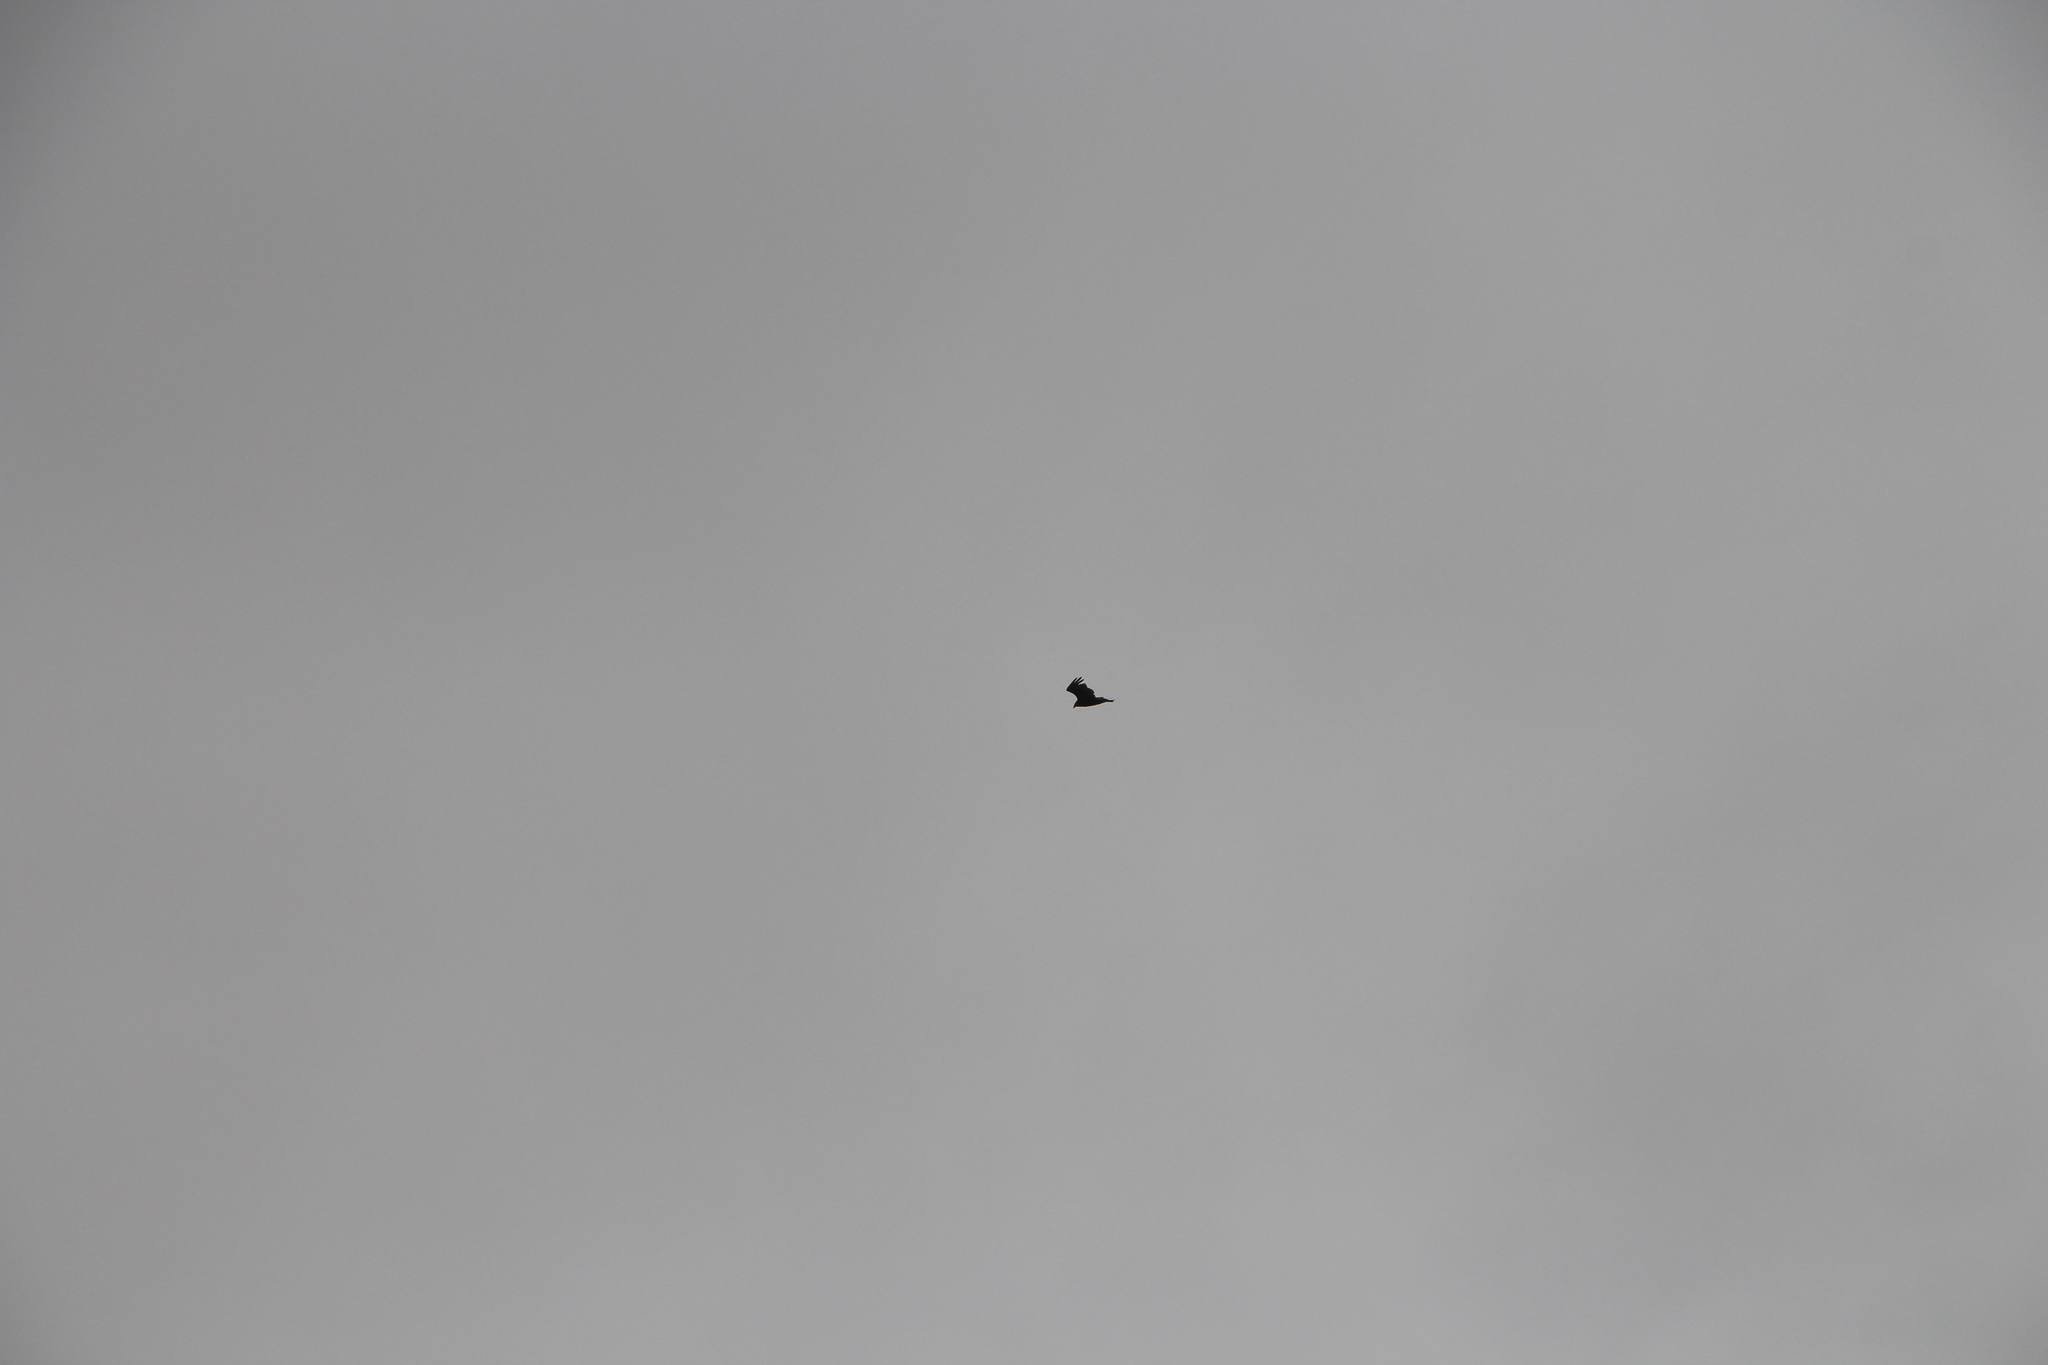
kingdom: Animalia
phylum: Chordata
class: Aves
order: Accipitriformes
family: Cathartidae
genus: Cathartes
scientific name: Cathartes aura
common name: Turkey vulture
